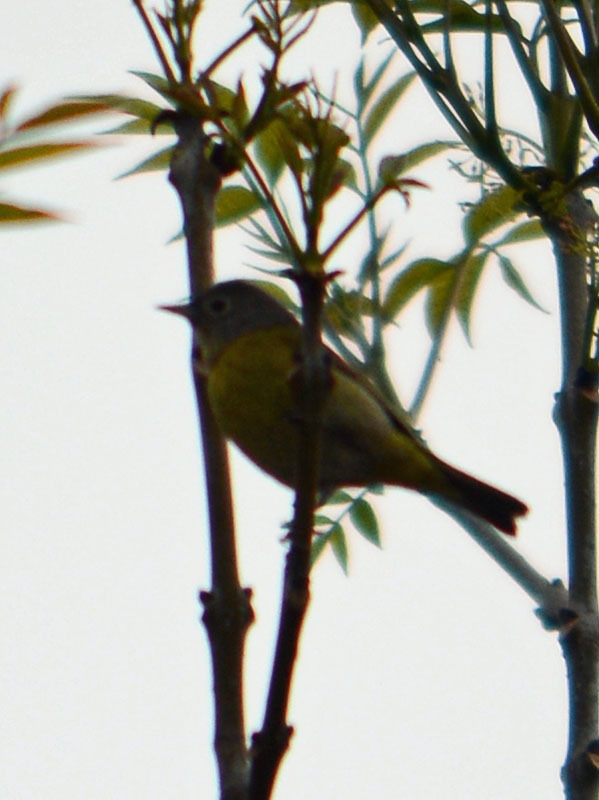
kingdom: Animalia
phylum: Chordata
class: Aves
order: Passeriformes
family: Parulidae
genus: Leiothlypis
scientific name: Leiothlypis ruficapilla
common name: Nashville warbler
